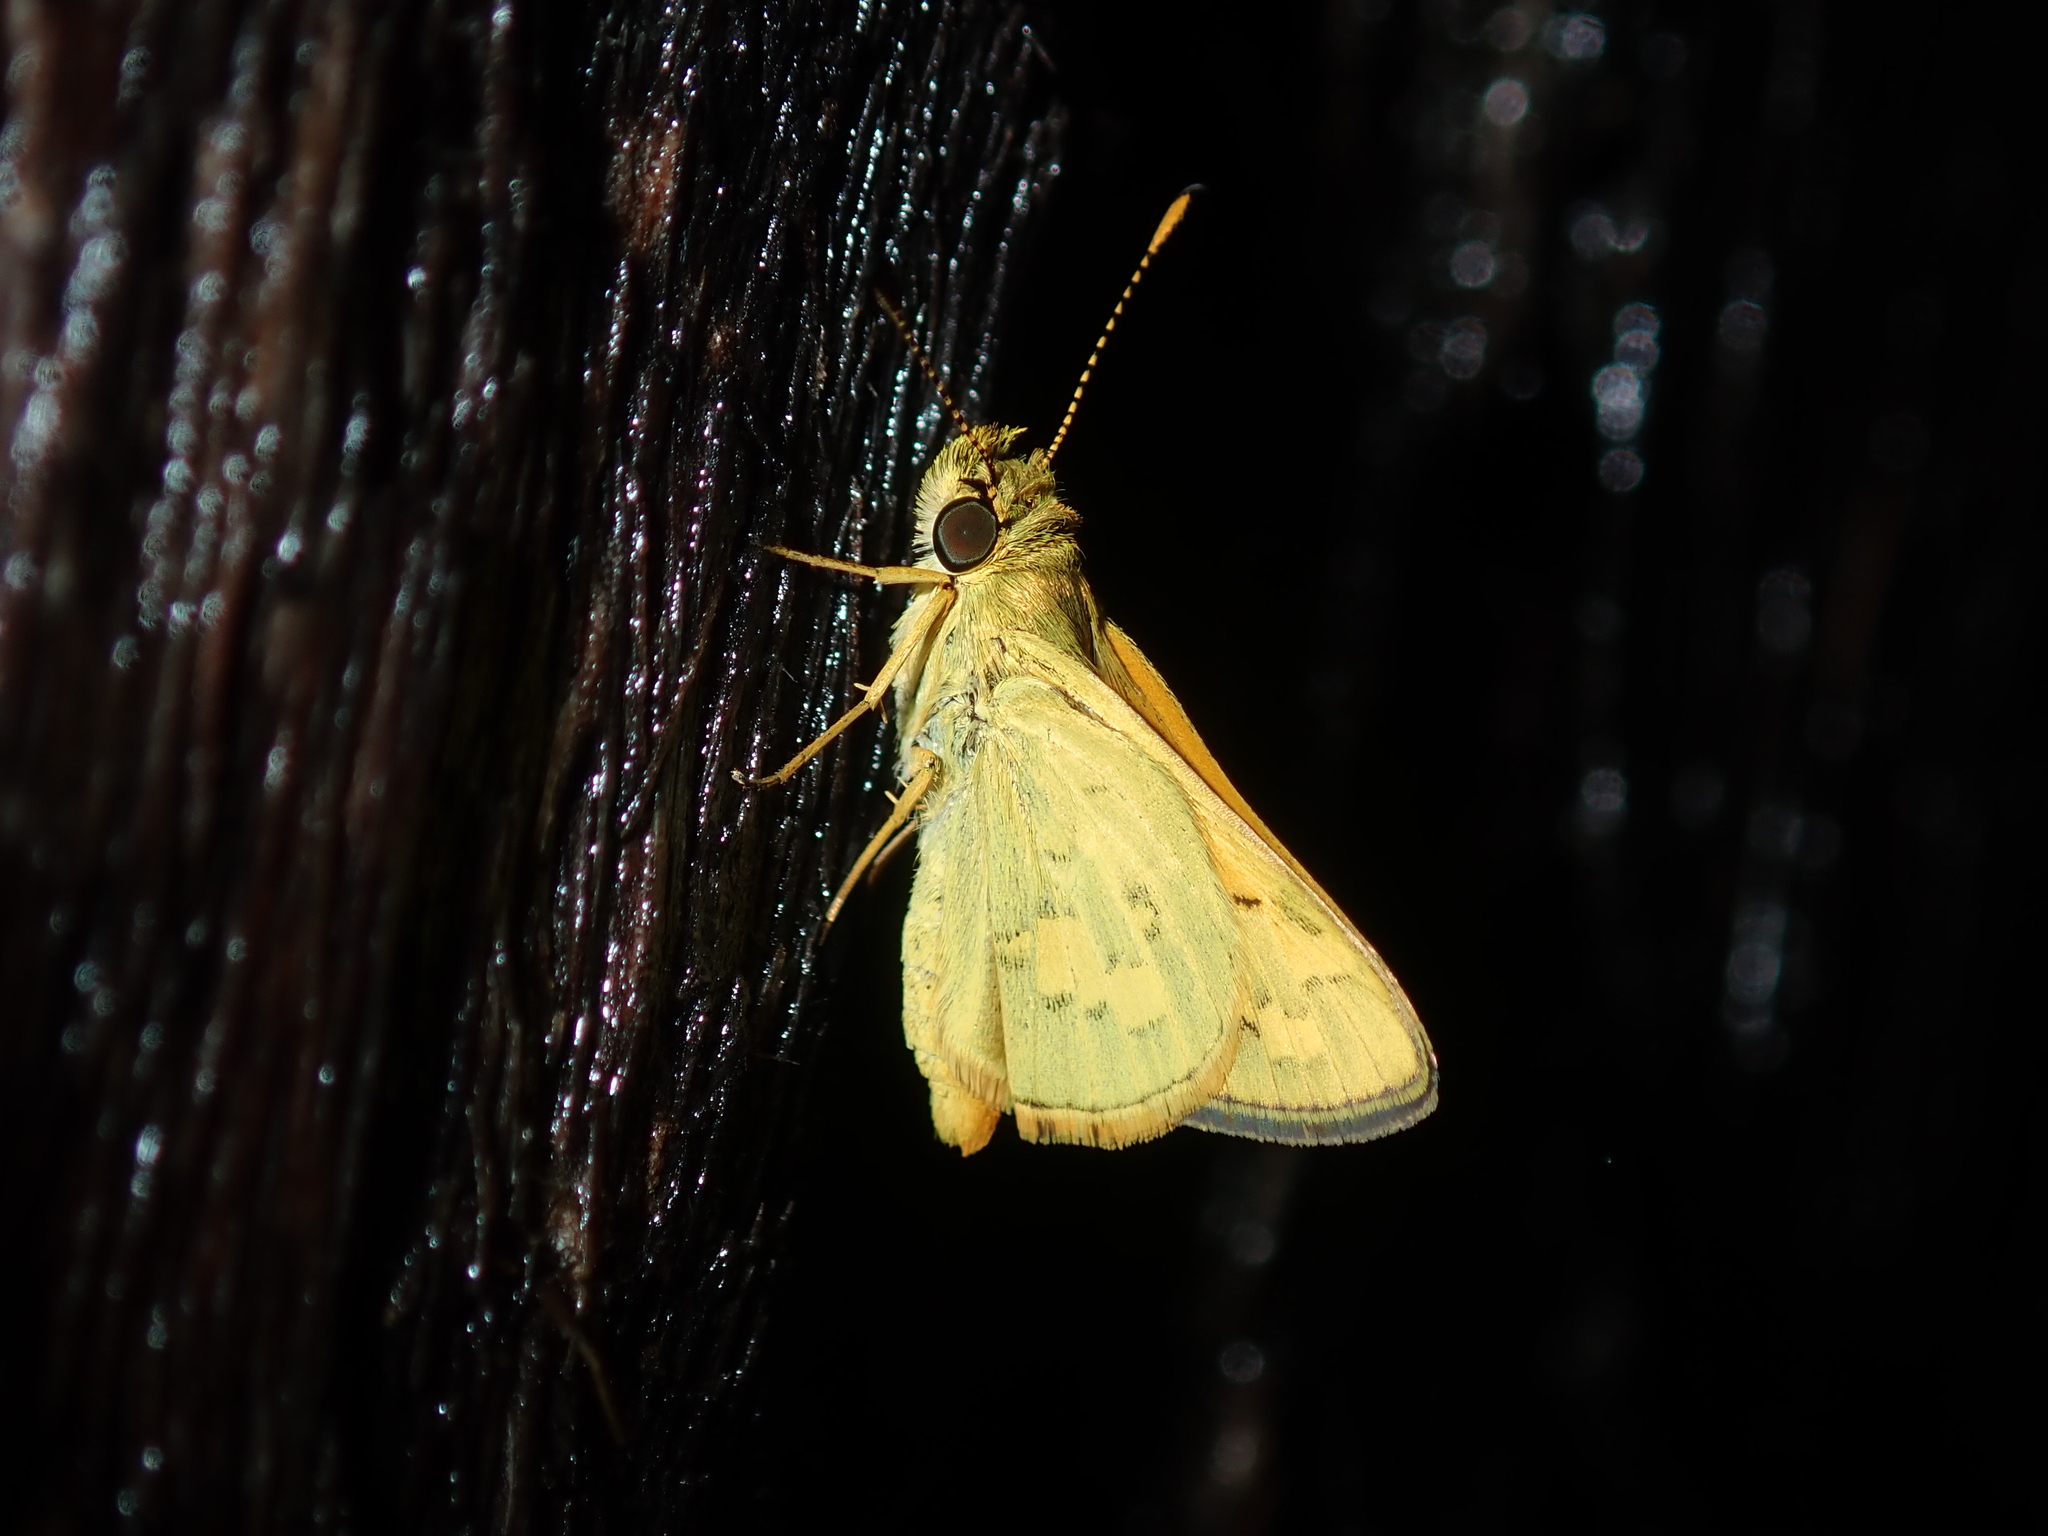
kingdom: Animalia
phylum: Arthropoda
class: Insecta
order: Lepidoptera
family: Hesperiidae
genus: Ocybadistes
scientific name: Ocybadistes walkeri
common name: Yellow-banded dart
